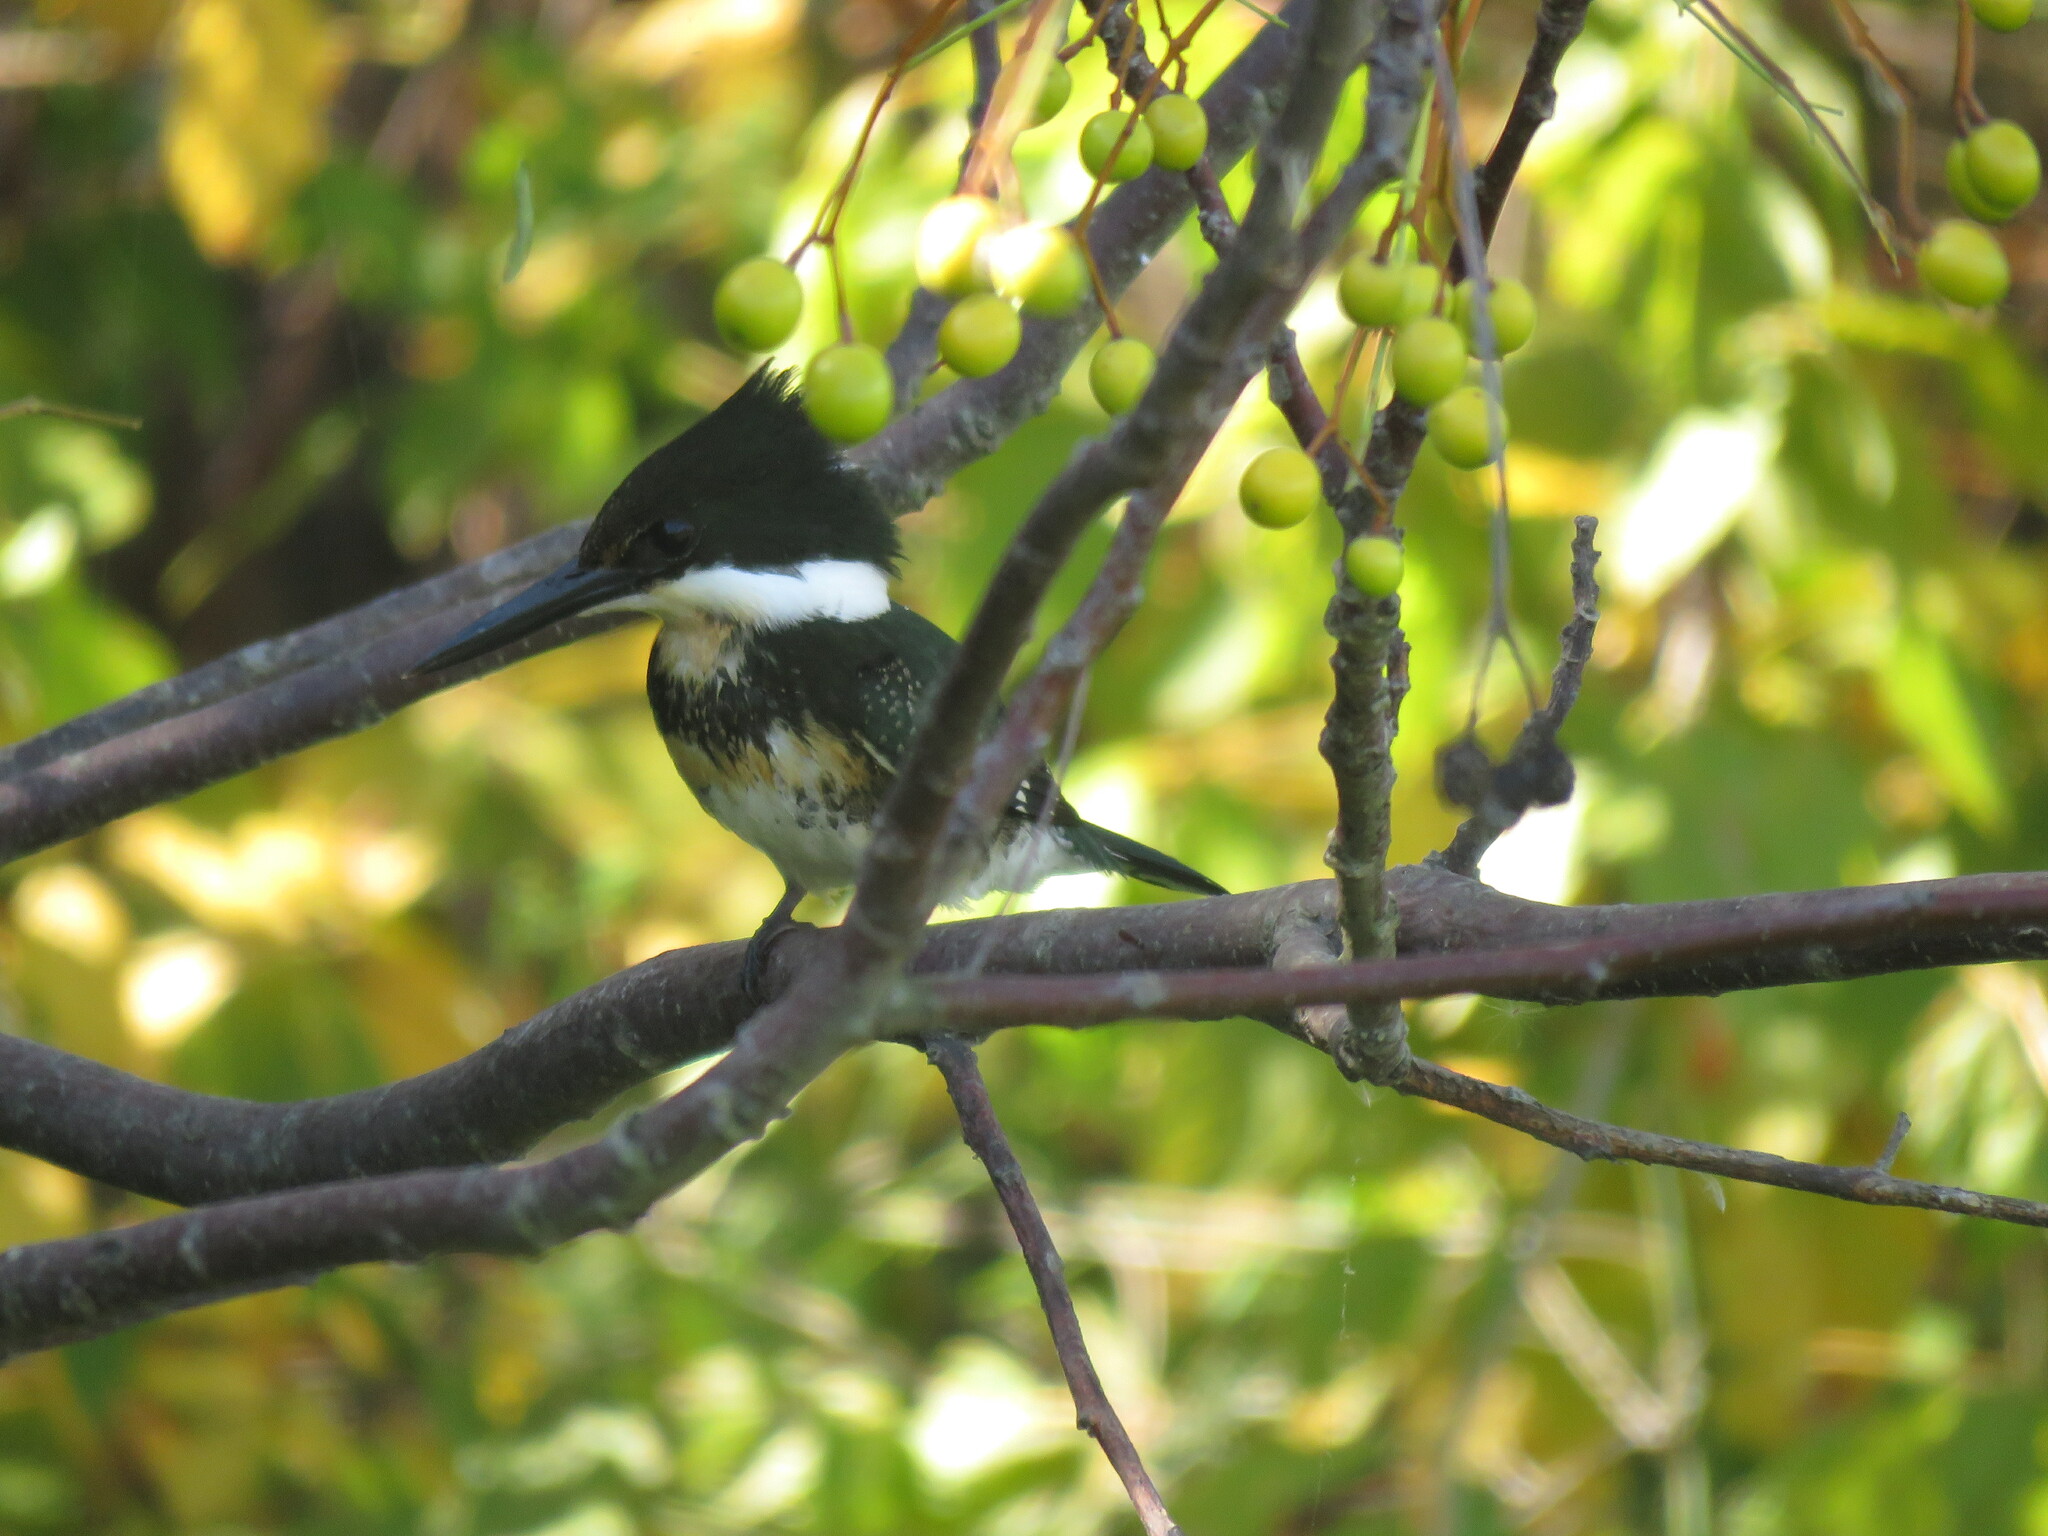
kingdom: Animalia
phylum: Chordata
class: Aves
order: Coraciiformes
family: Alcedinidae
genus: Chloroceryle
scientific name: Chloroceryle americana
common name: Green kingfisher
